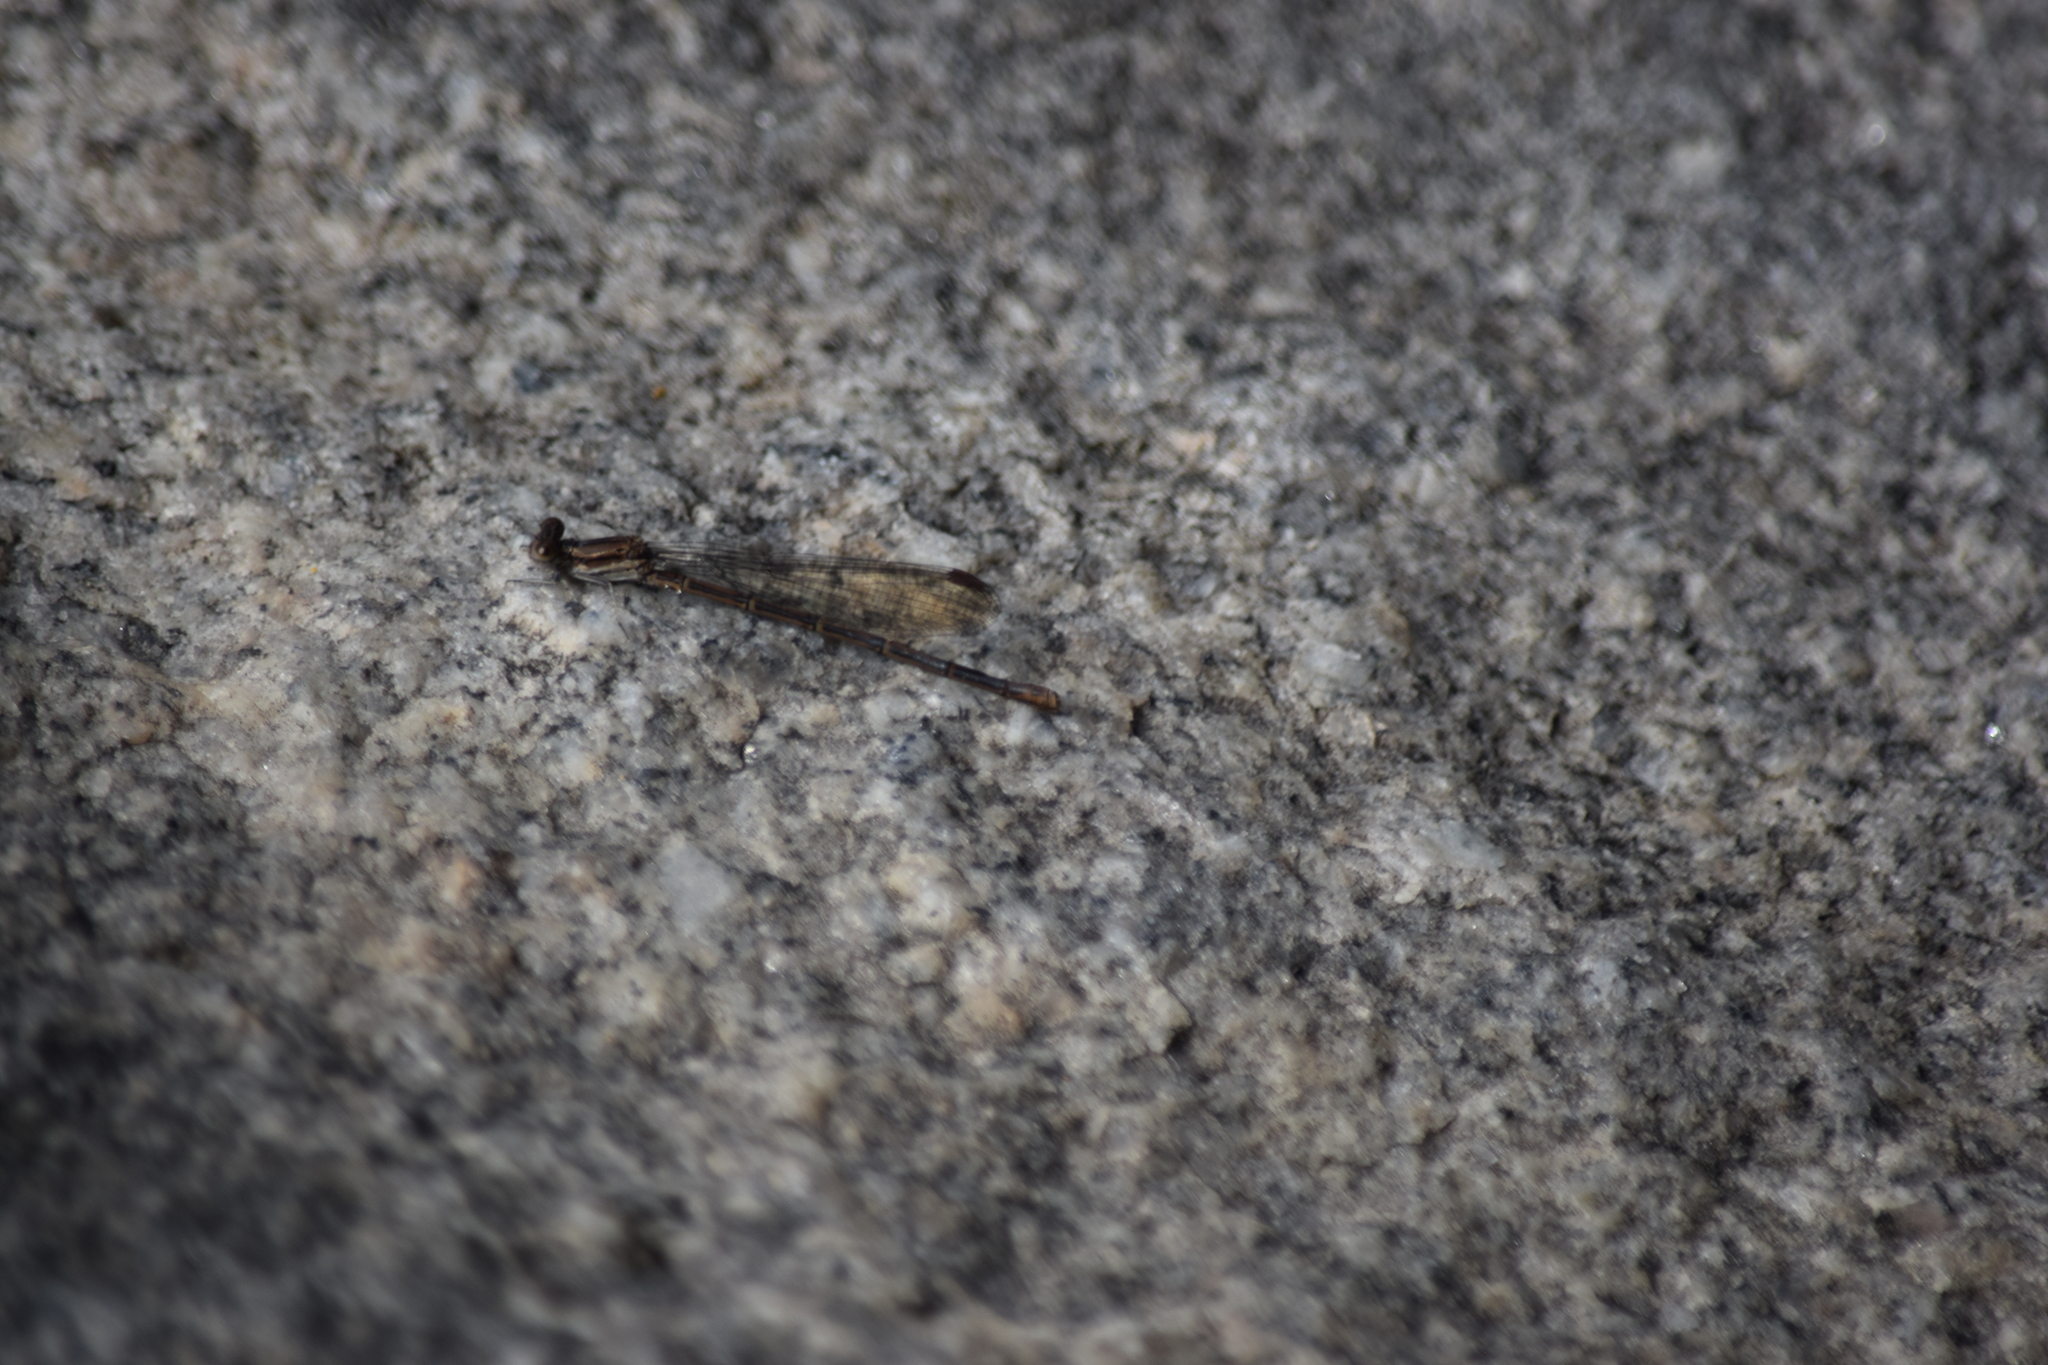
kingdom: Animalia
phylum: Arthropoda
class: Insecta
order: Odonata
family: Coenagrionidae
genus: Argia
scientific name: Argia fumipennis
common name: Variable dancer
